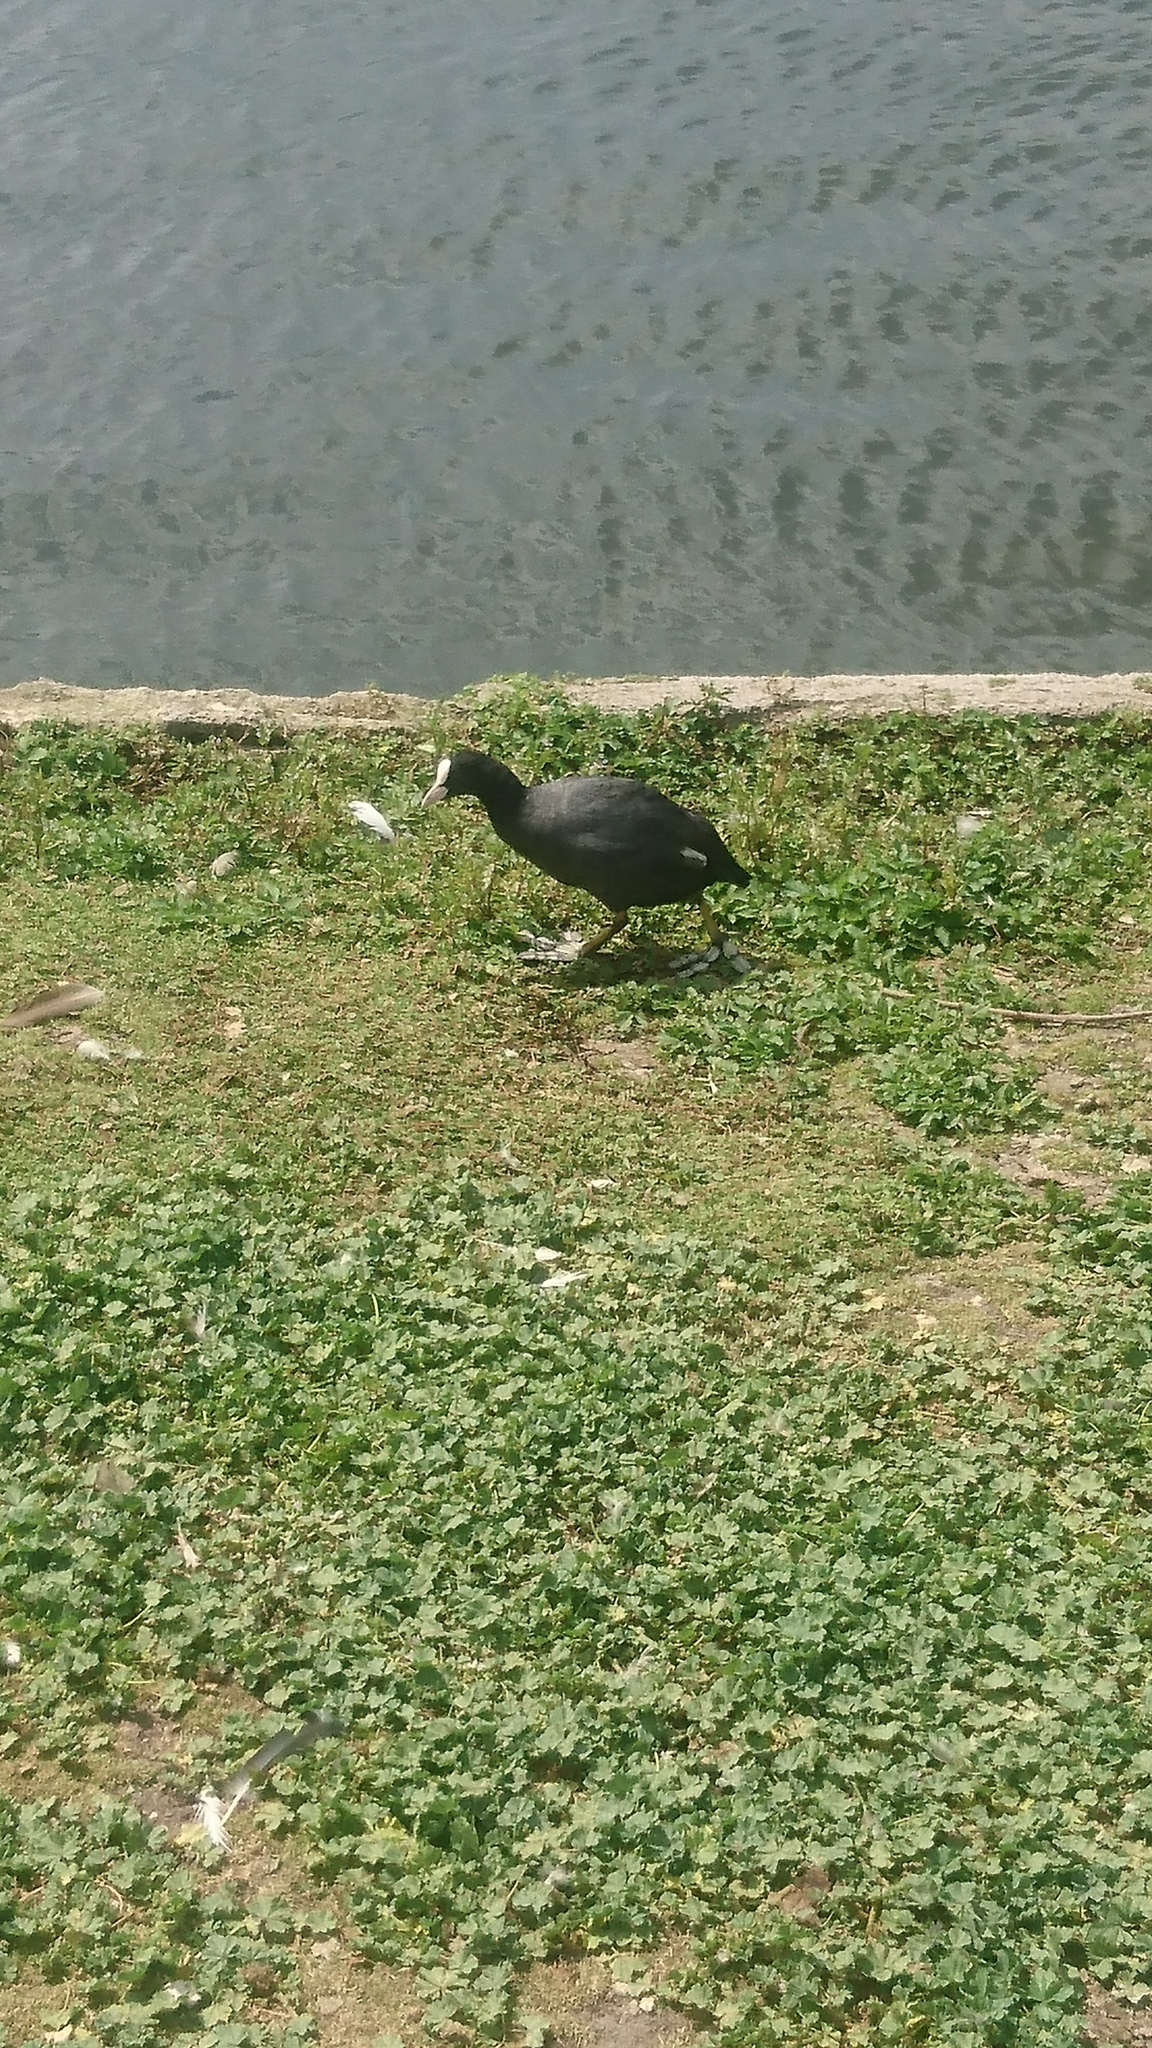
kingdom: Animalia
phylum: Chordata
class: Aves
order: Gruiformes
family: Rallidae
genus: Fulica
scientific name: Fulica atra
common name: Eurasian coot
